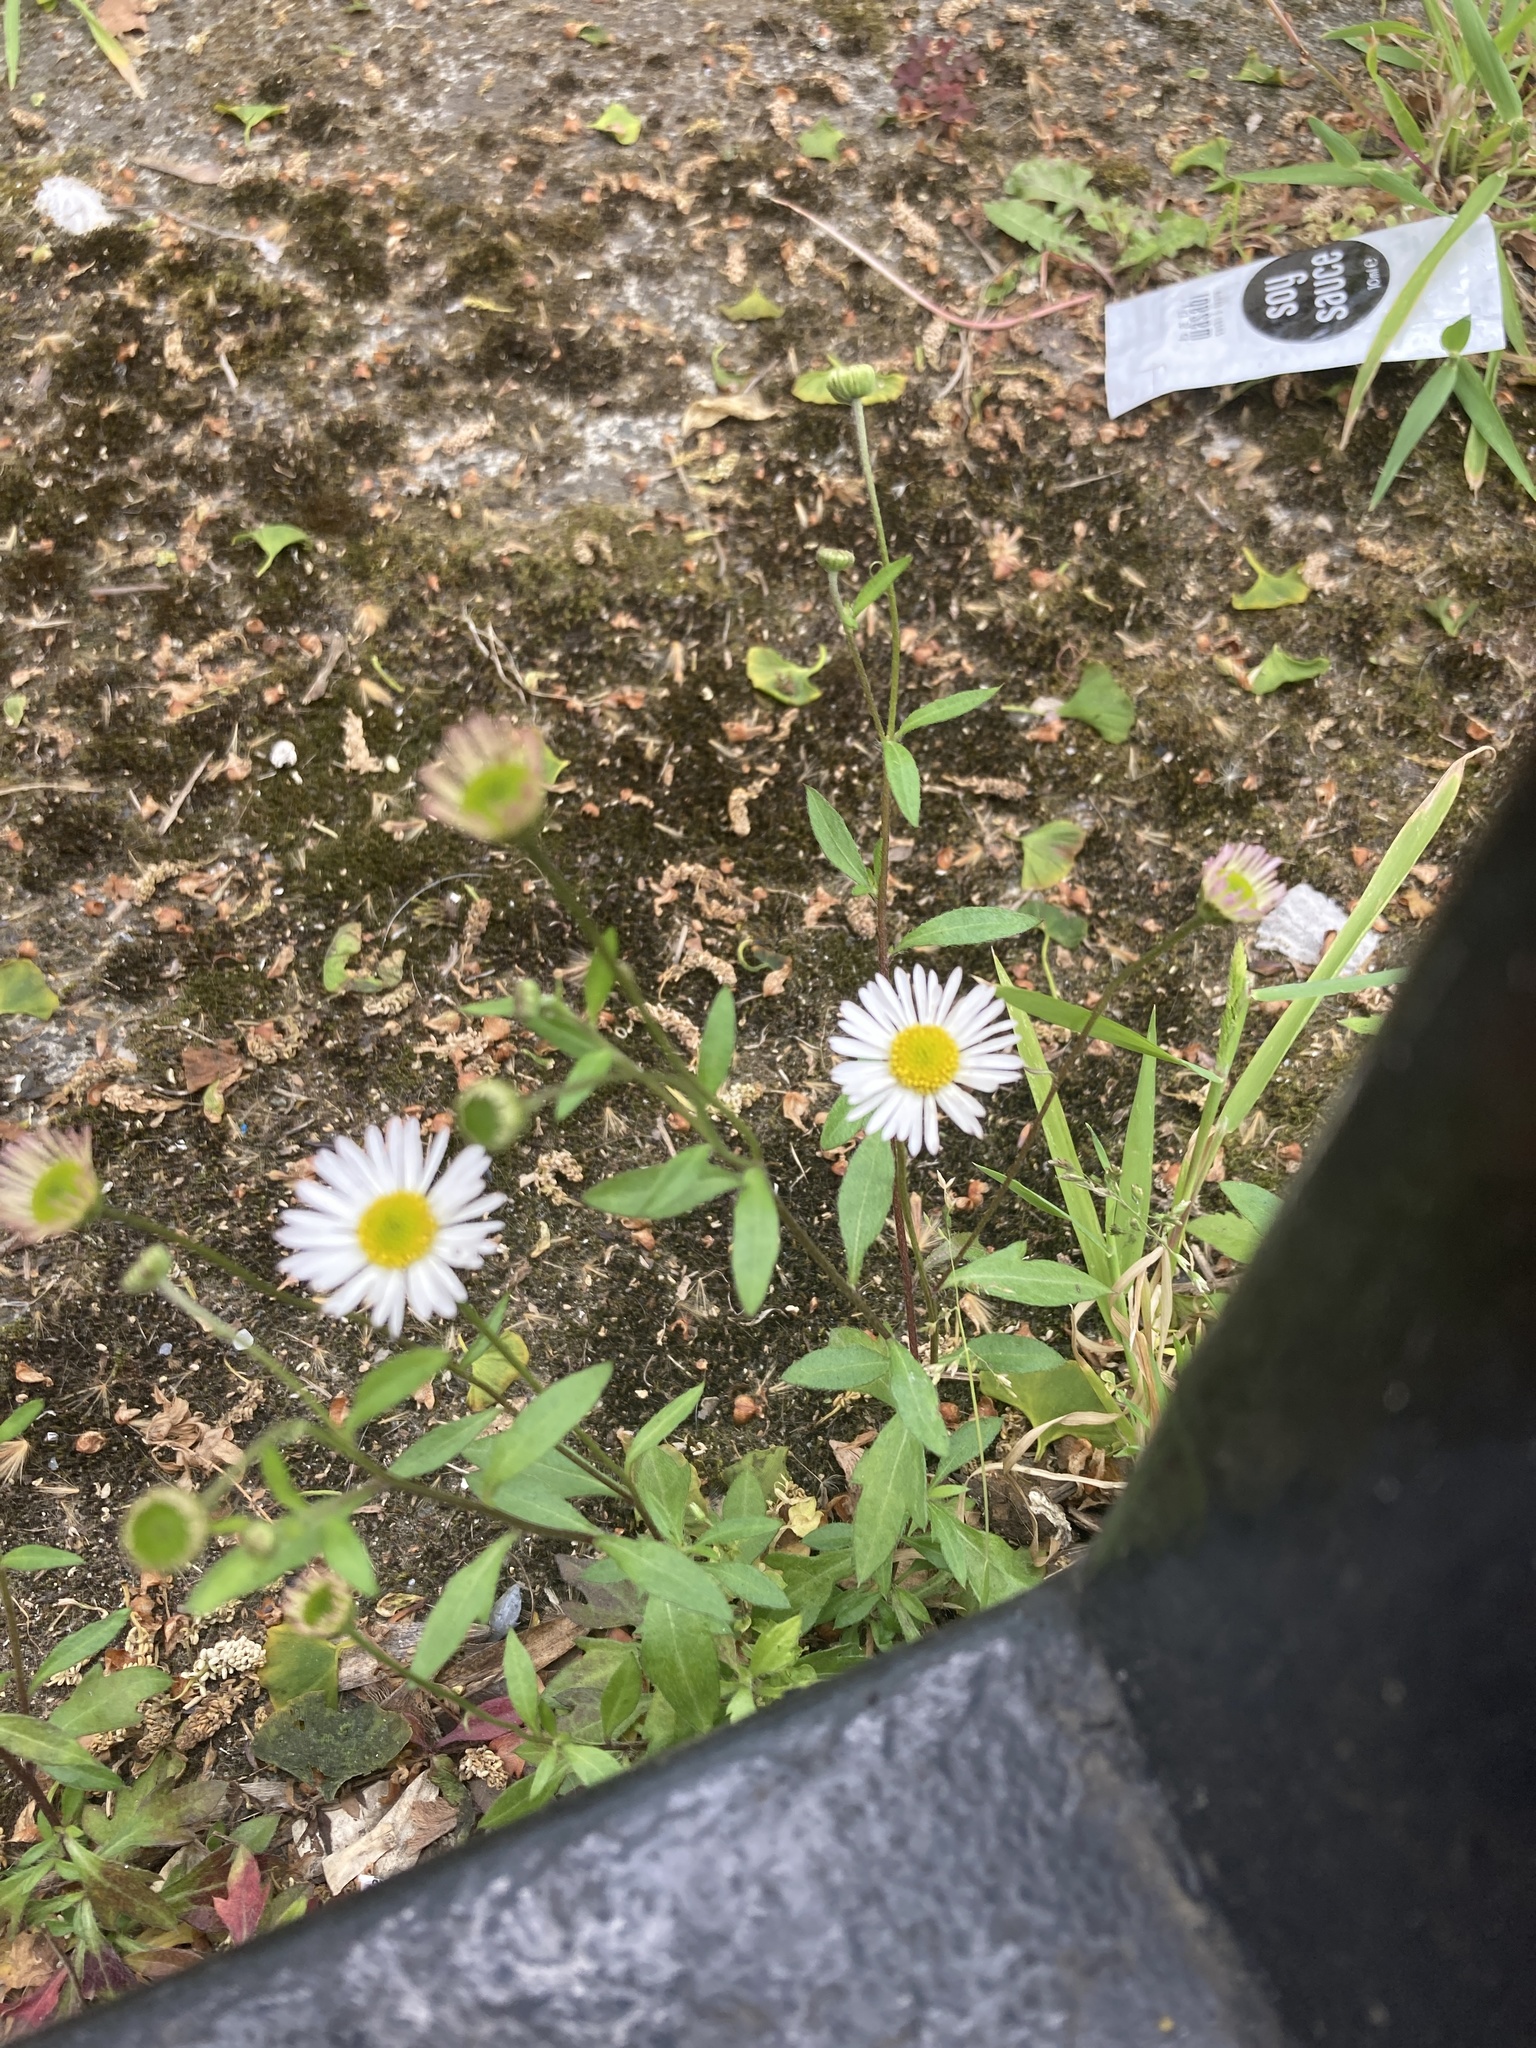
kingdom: Plantae
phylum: Tracheophyta
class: Magnoliopsida
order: Asterales
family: Asteraceae
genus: Erigeron
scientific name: Erigeron karvinskianus
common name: Mexican fleabane
